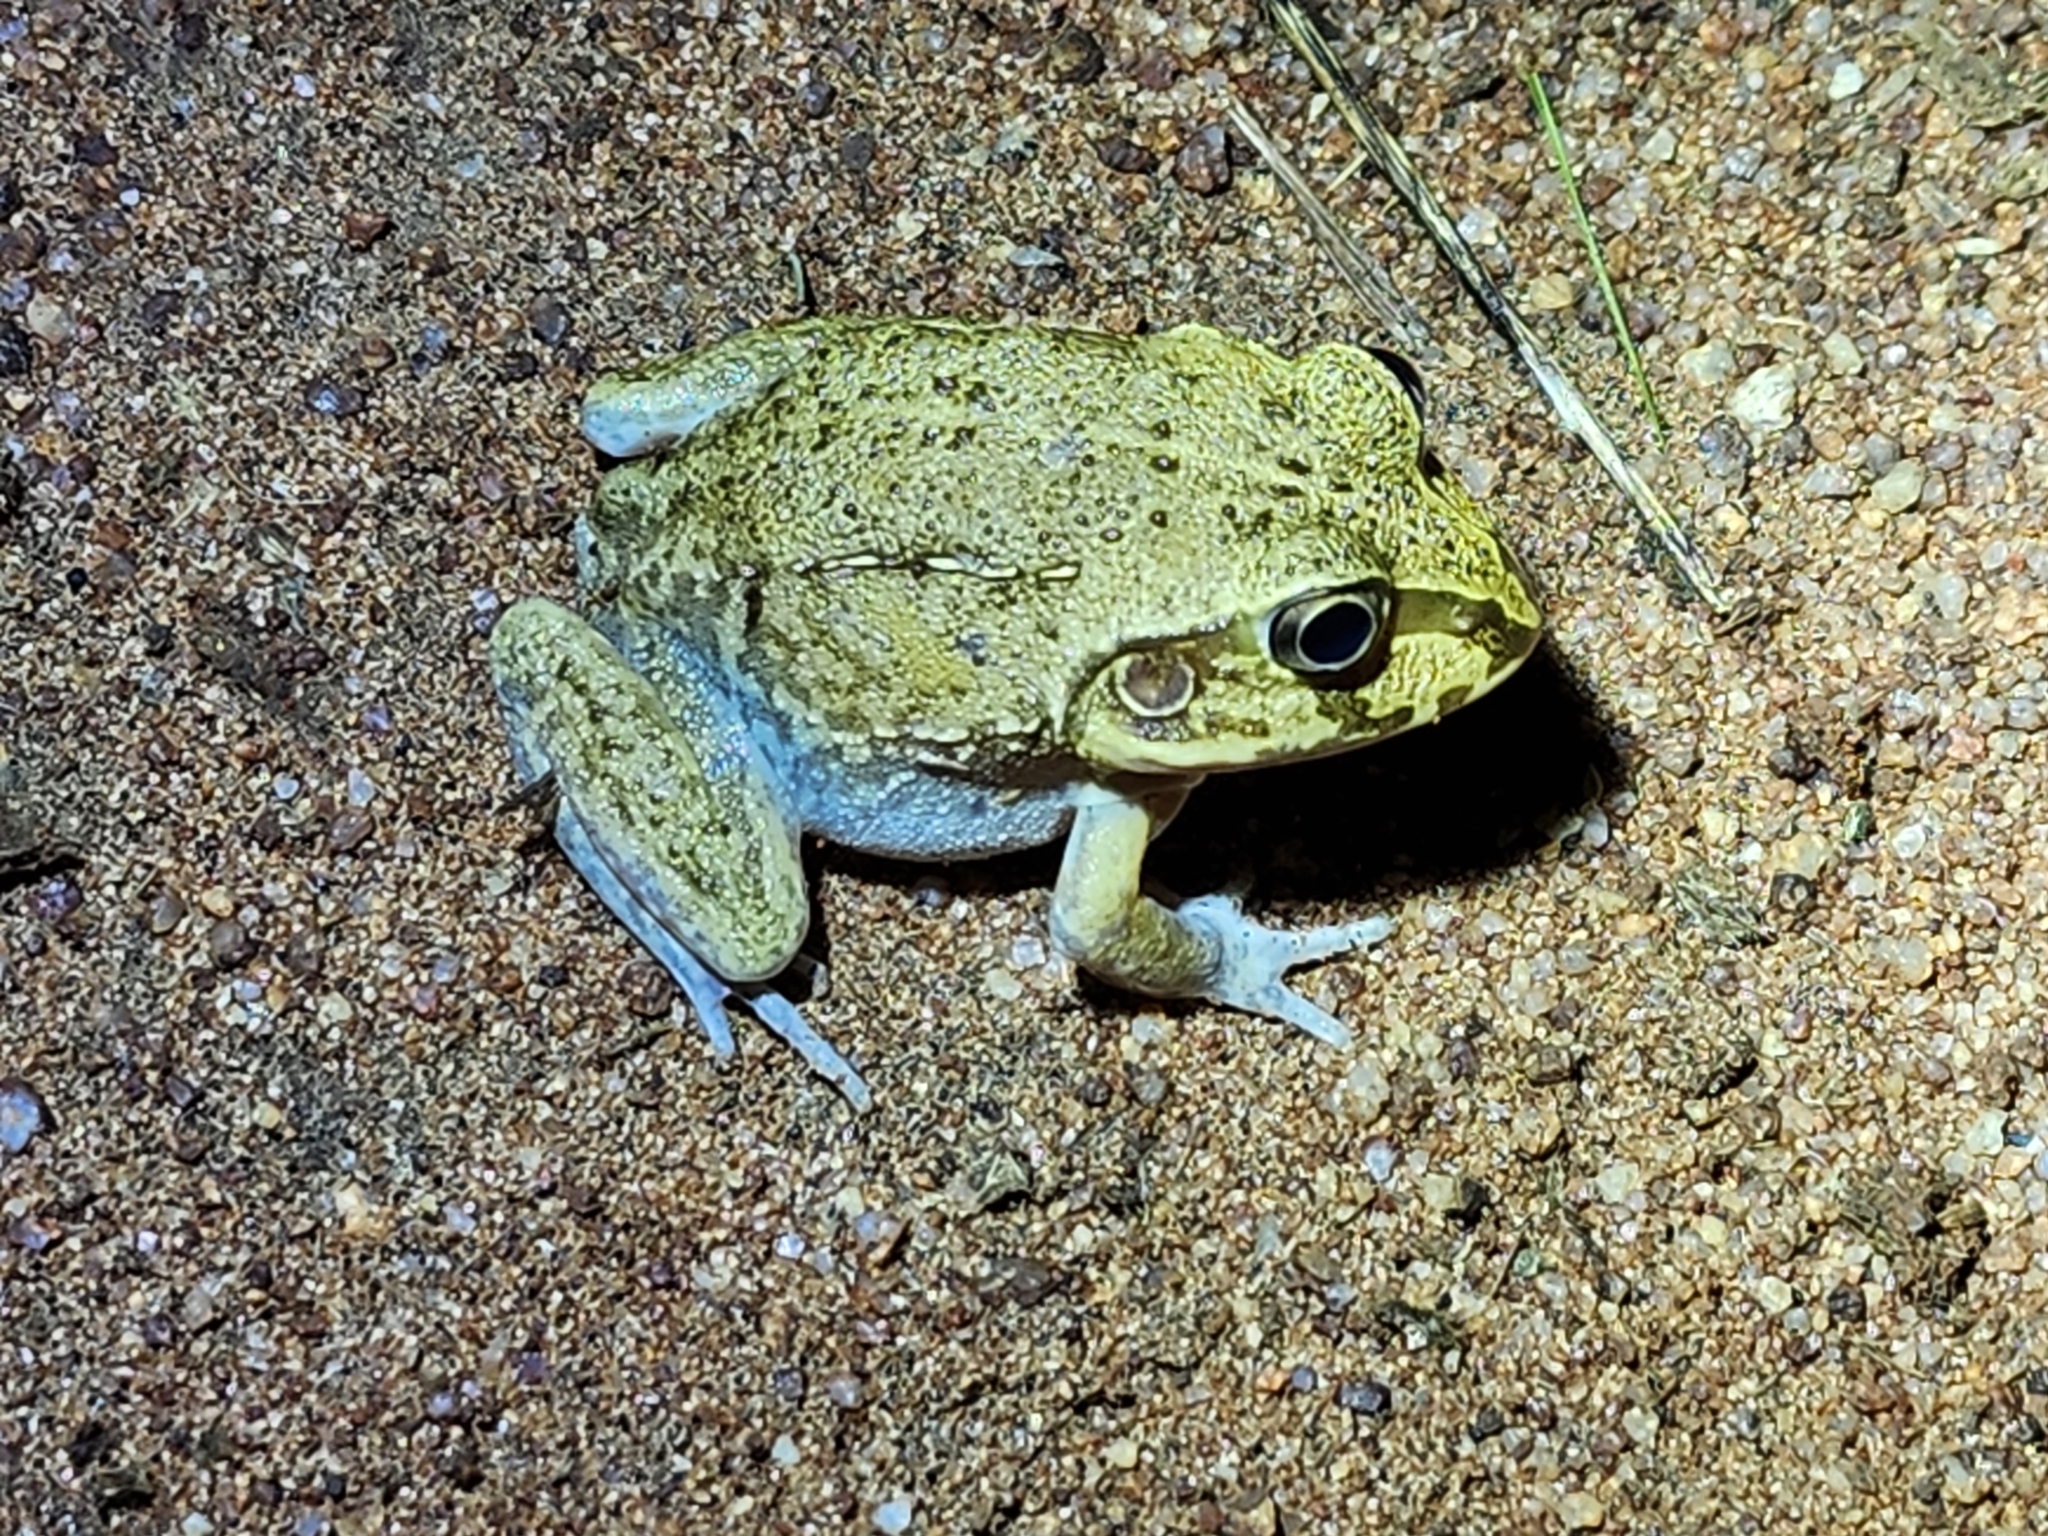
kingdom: Animalia
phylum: Chordata
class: Amphibia
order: Anura
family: Pelodryadidae
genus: Ranoidea
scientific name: Ranoidea novaehollandiae
